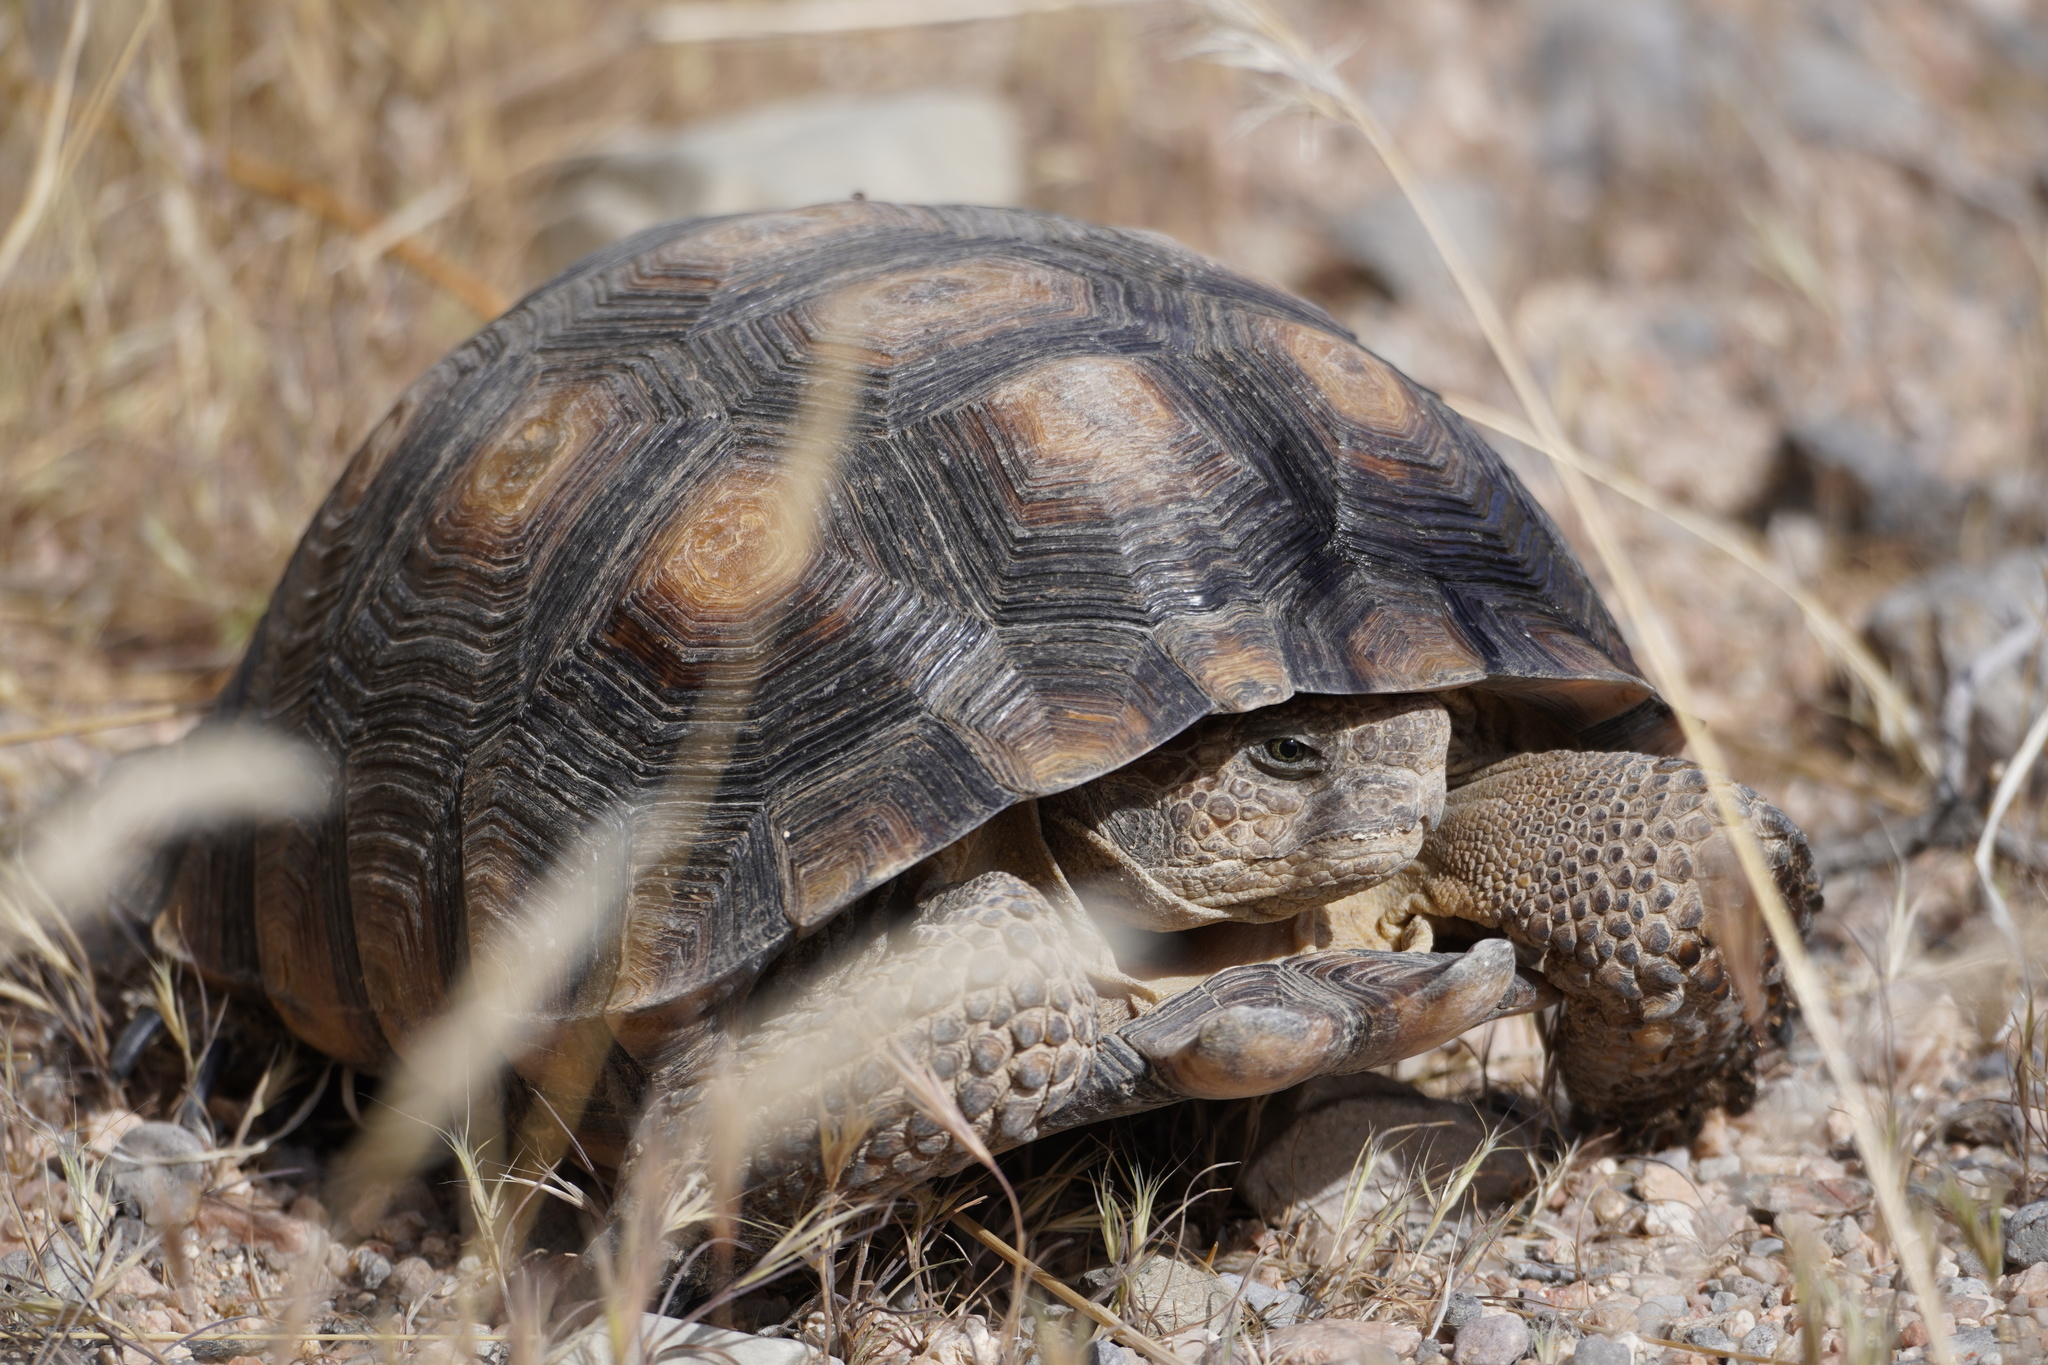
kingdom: Animalia
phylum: Chordata
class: Testudines
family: Testudinidae
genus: Gopherus
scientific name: Gopherus morafkai
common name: Sonoran desert tortoise
